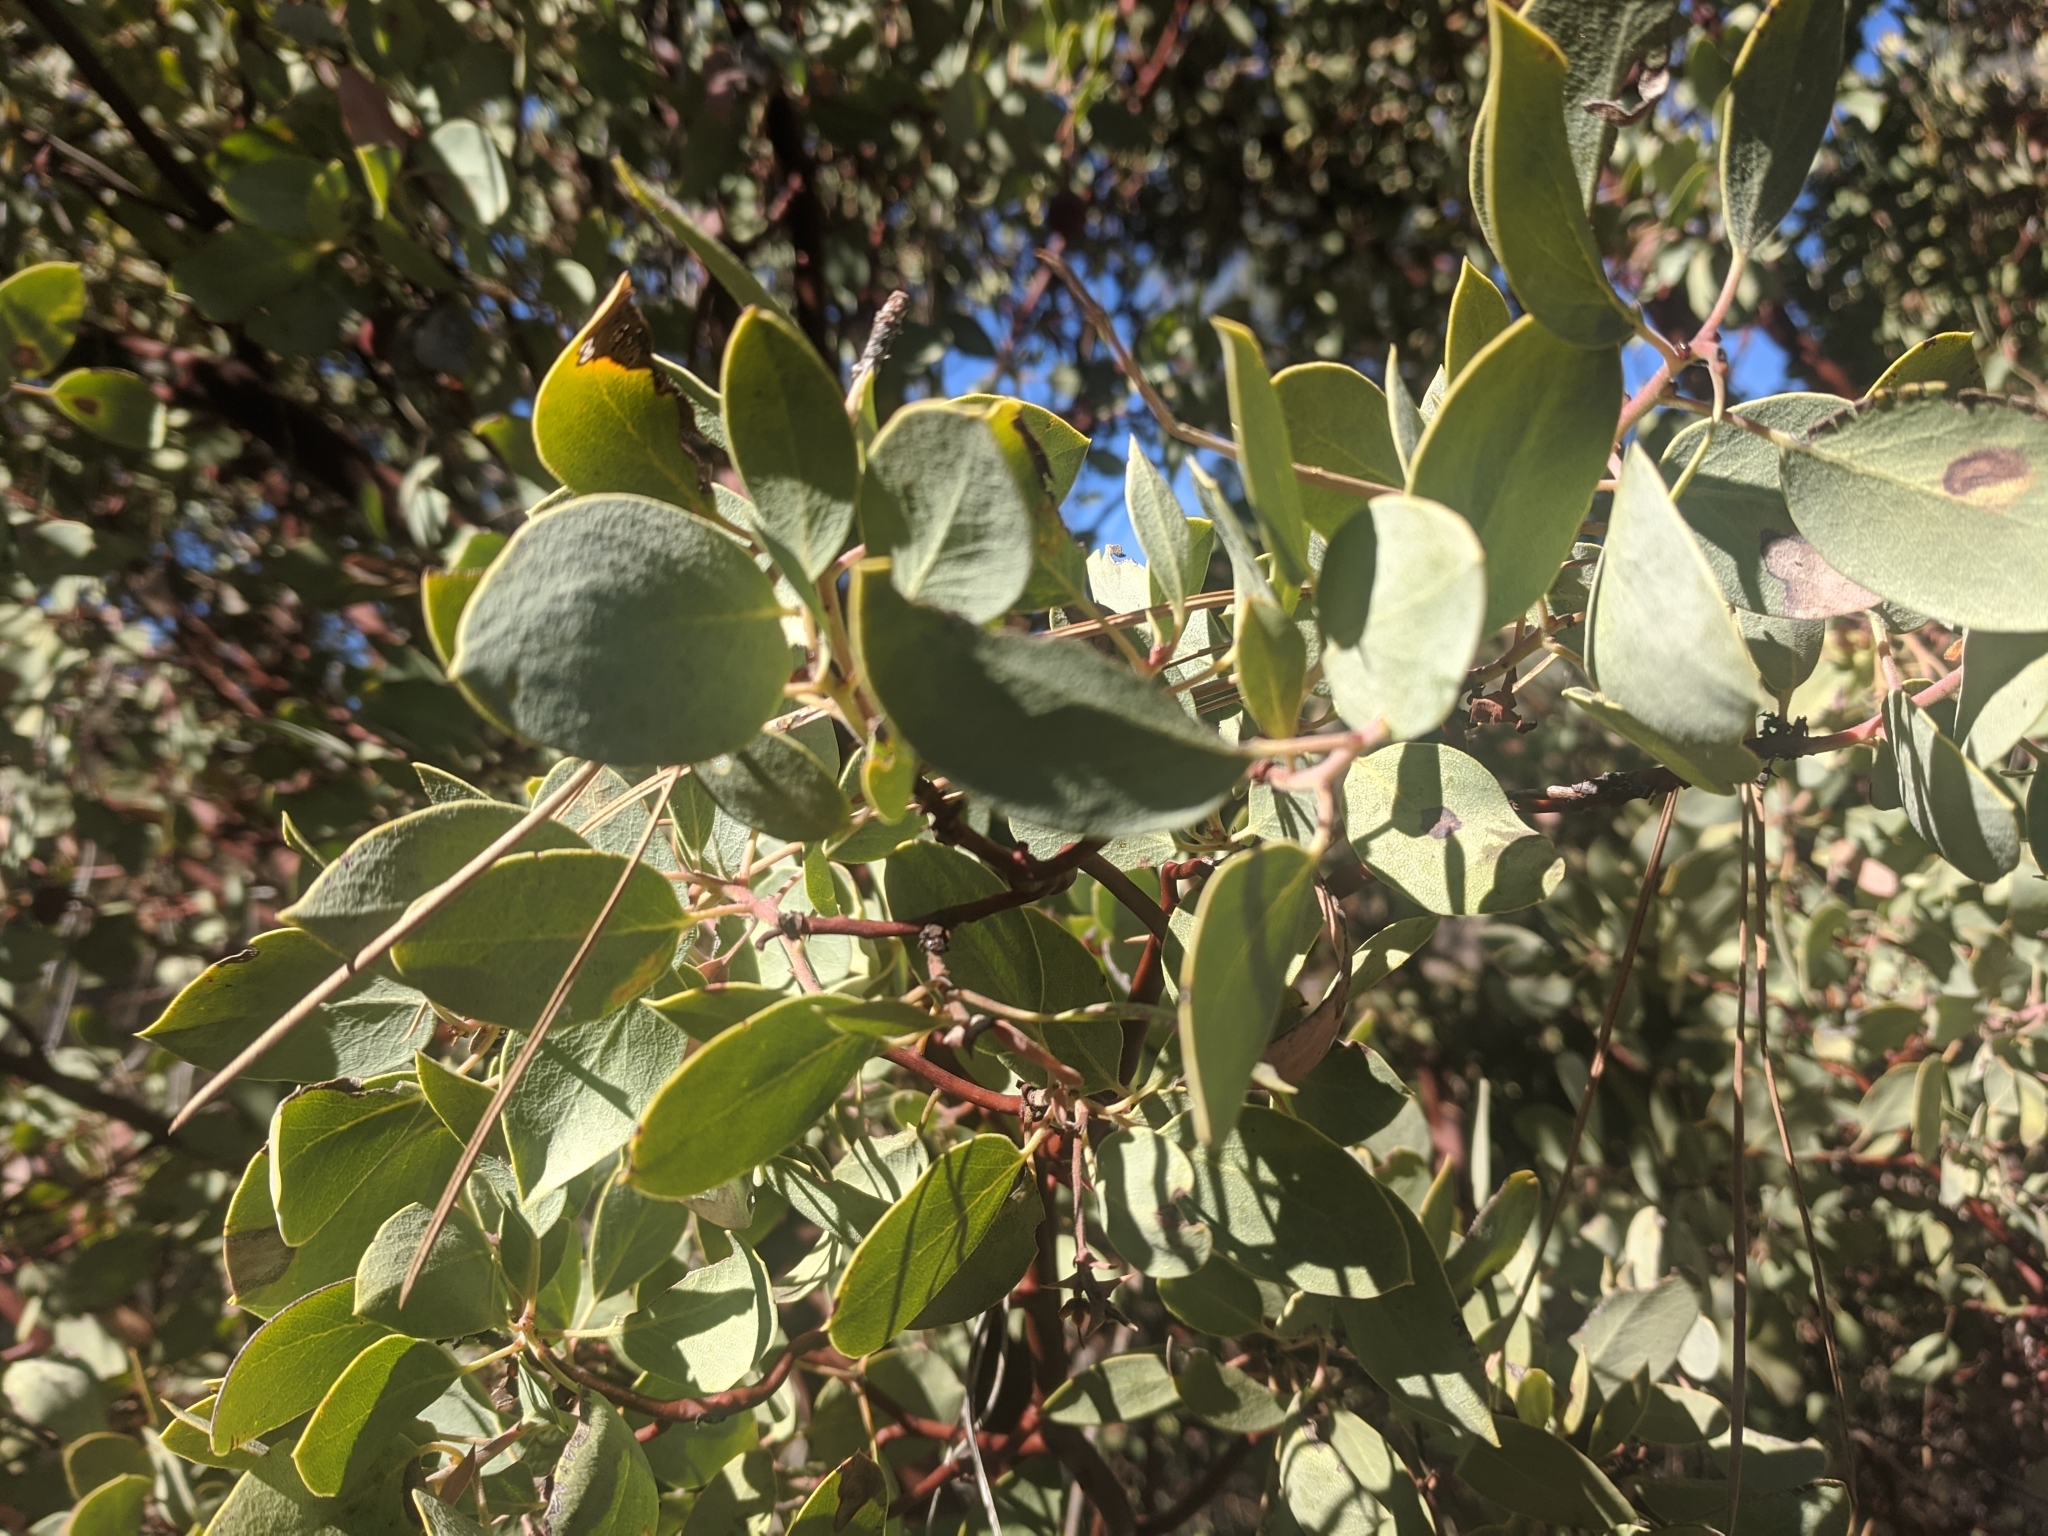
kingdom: Plantae
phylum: Tracheophyta
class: Magnoliopsida
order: Ericales
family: Ericaceae
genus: Arctostaphylos
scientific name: Arctostaphylos glauca
